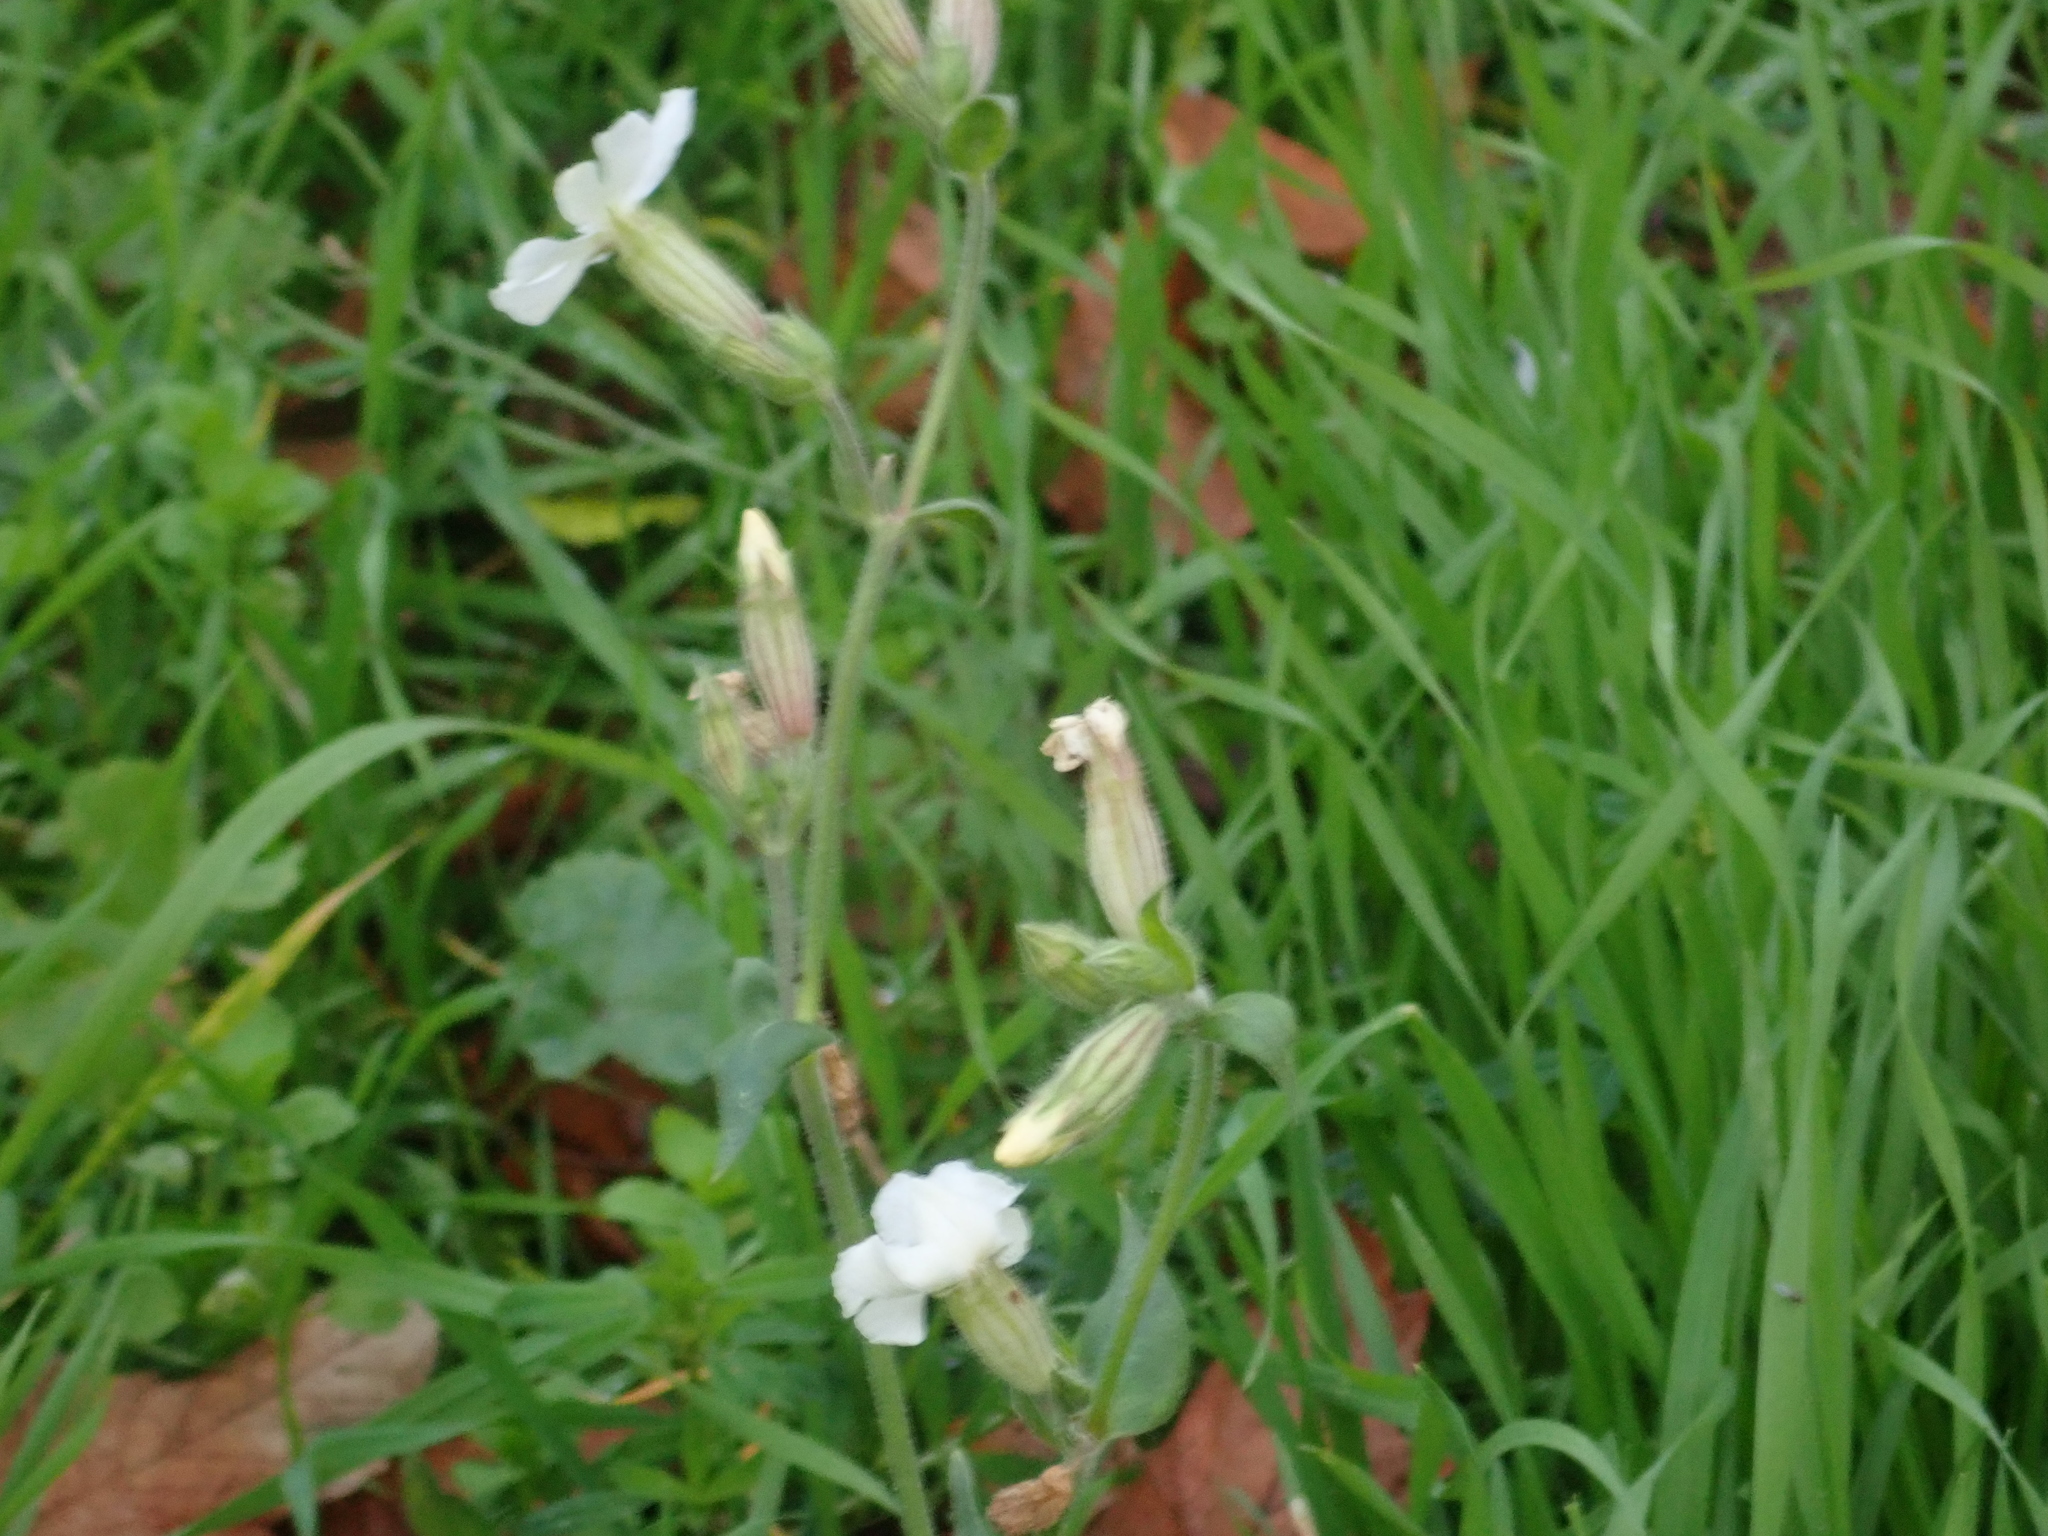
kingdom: Plantae
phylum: Tracheophyta
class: Magnoliopsida
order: Caryophyllales
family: Caryophyllaceae
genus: Silene
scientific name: Silene latifolia
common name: White campion
